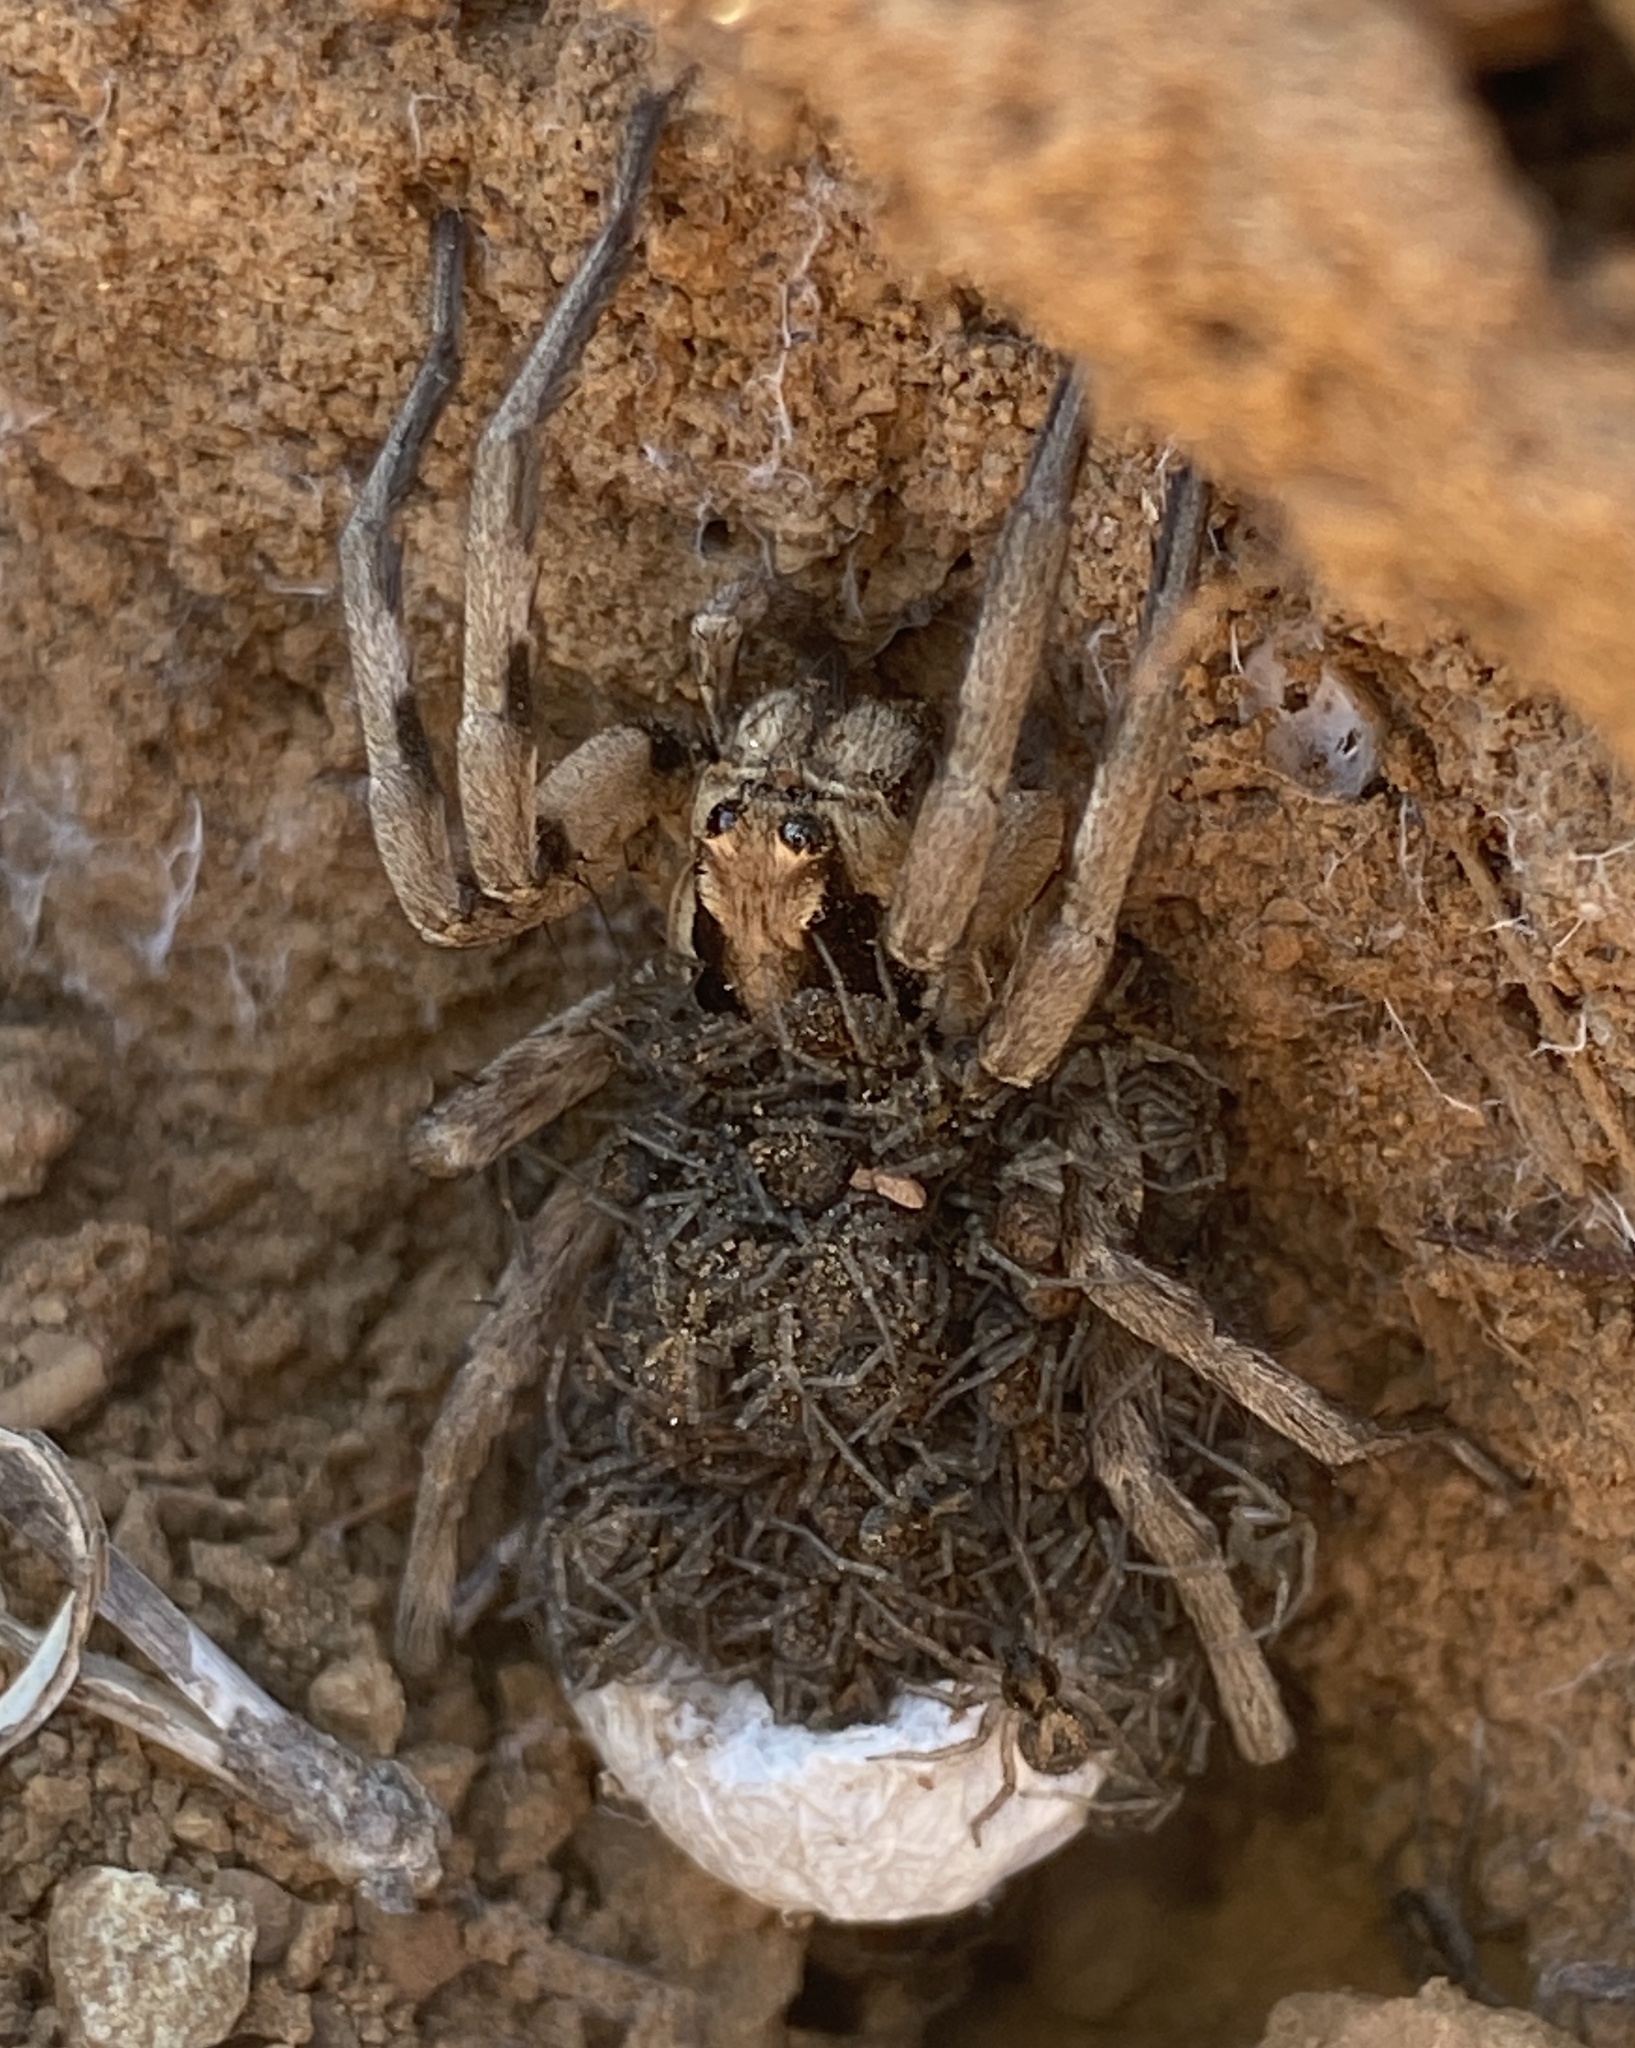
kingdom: Animalia
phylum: Arthropoda
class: Arachnida
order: Araneae
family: Lycosidae
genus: Lycosa
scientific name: Lycosa praegrandis
